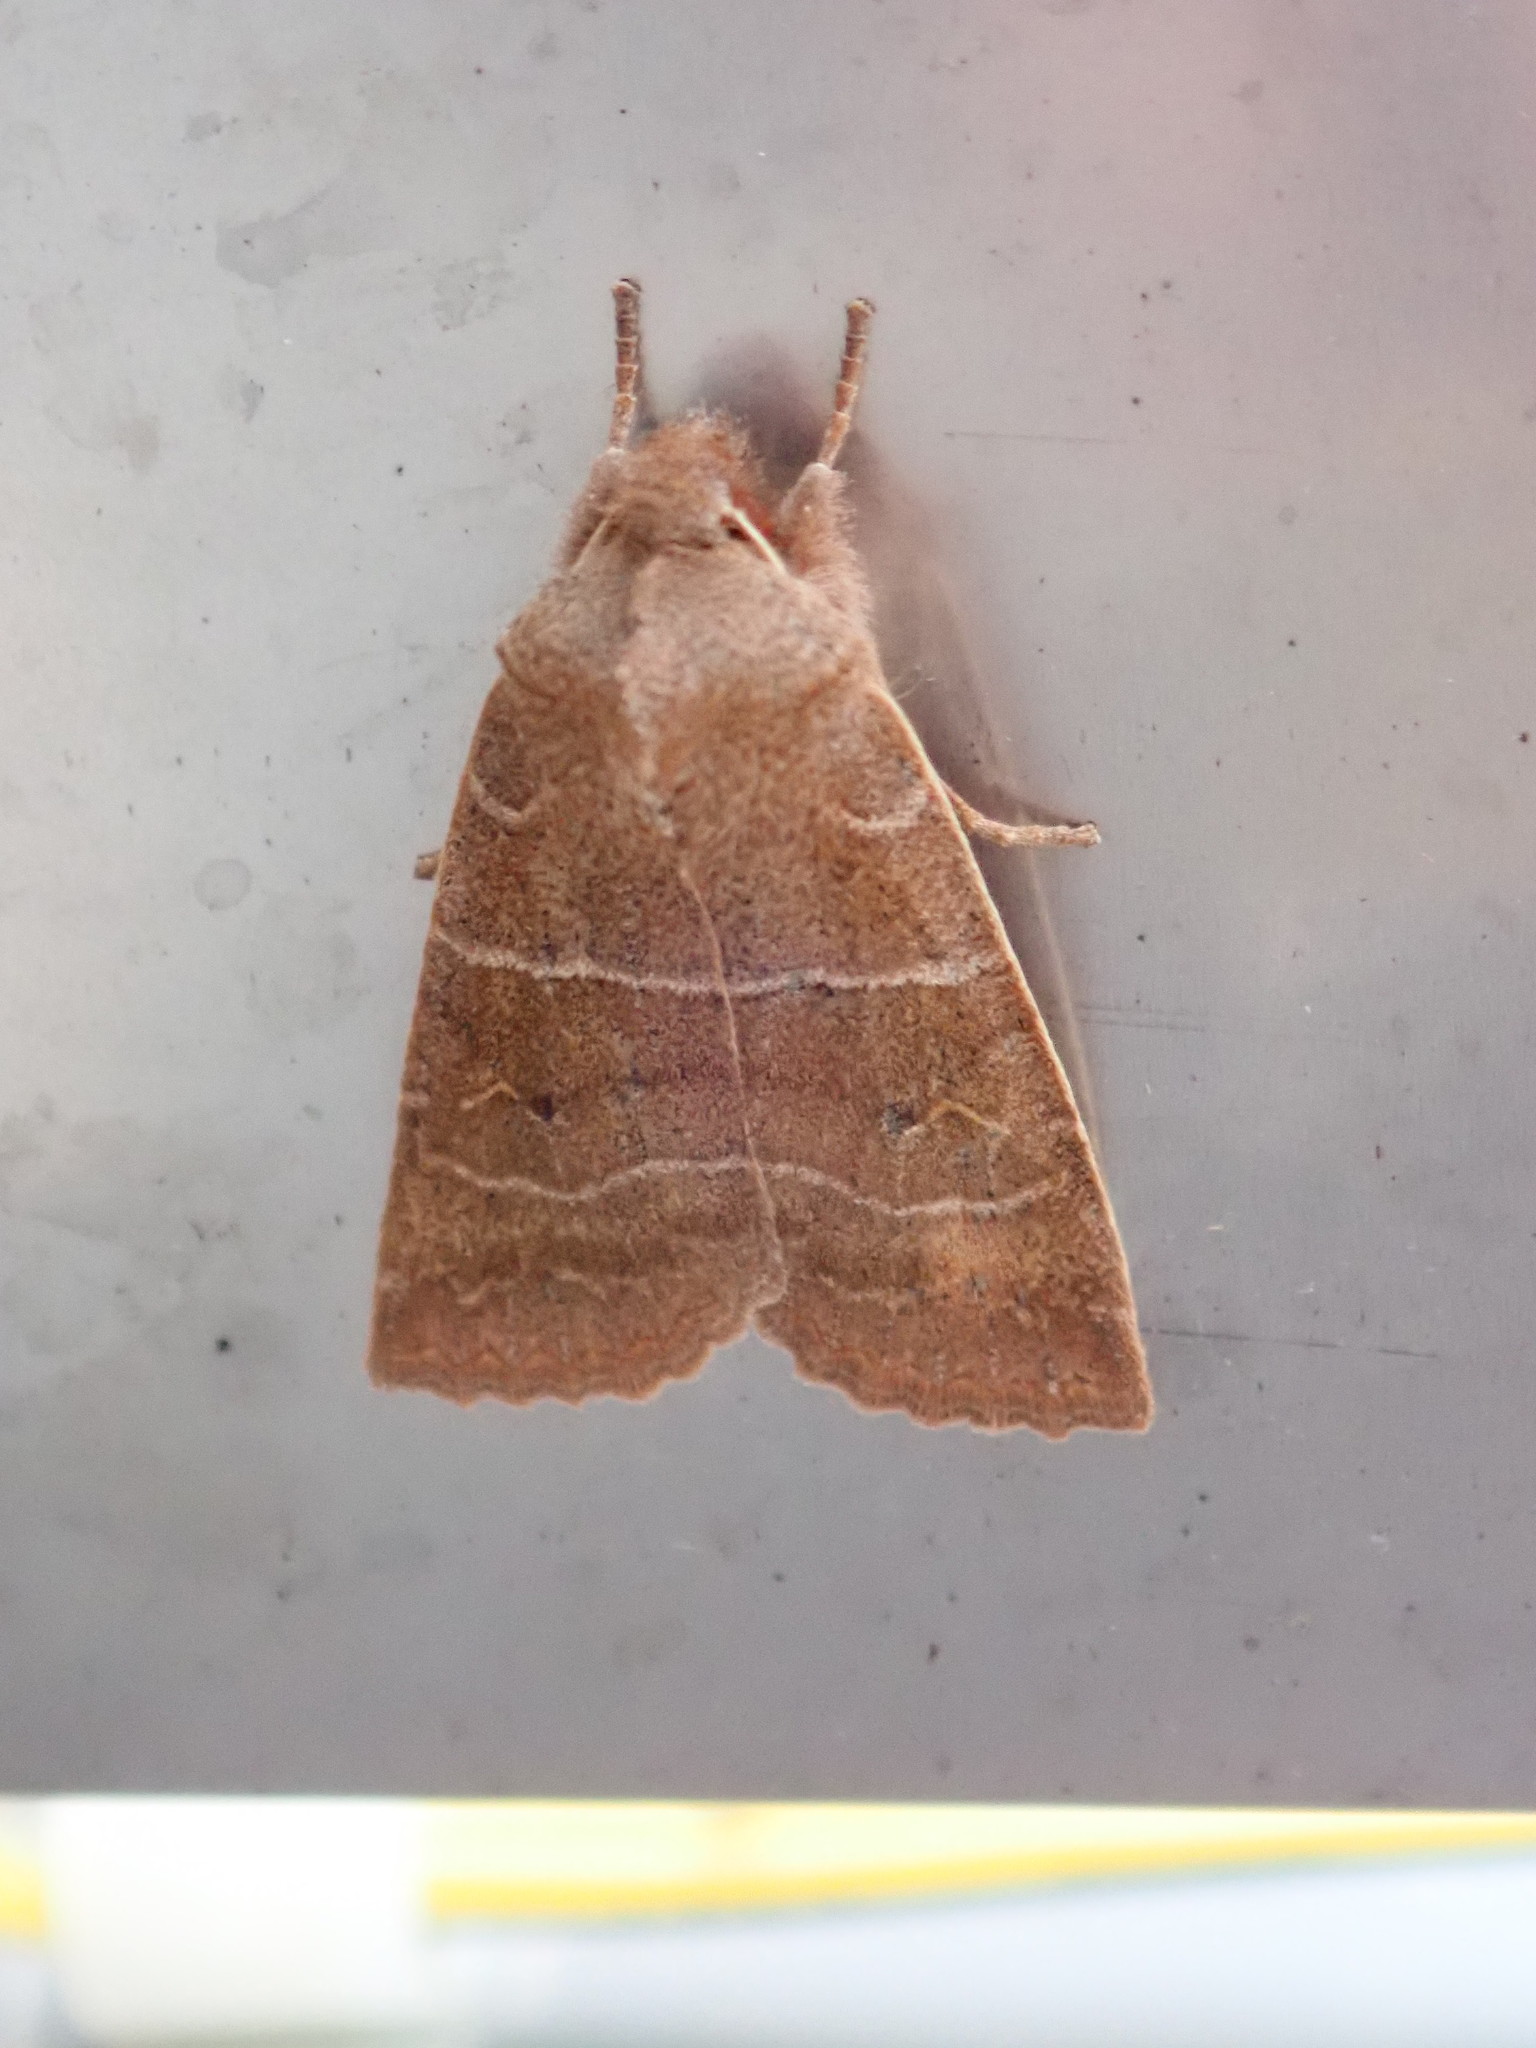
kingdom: Animalia
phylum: Arthropoda
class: Insecta
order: Lepidoptera
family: Noctuidae
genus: Eupsilia
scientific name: Eupsilia morrisoni
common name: Morrison's sallow
